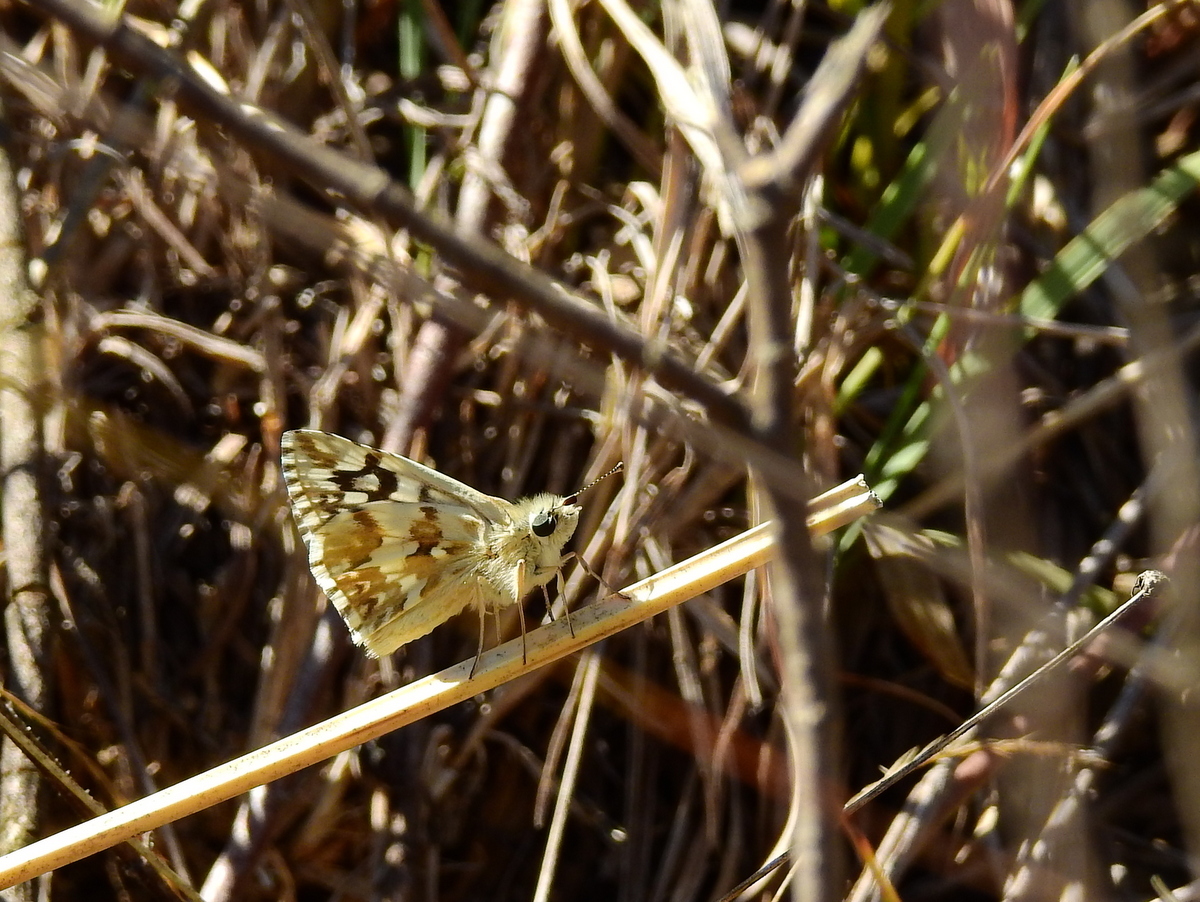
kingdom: Animalia
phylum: Arthropoda
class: Insecta
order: Lepidoptera
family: Hesperiidae
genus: Heliopetes
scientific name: Heliopetes americanus
